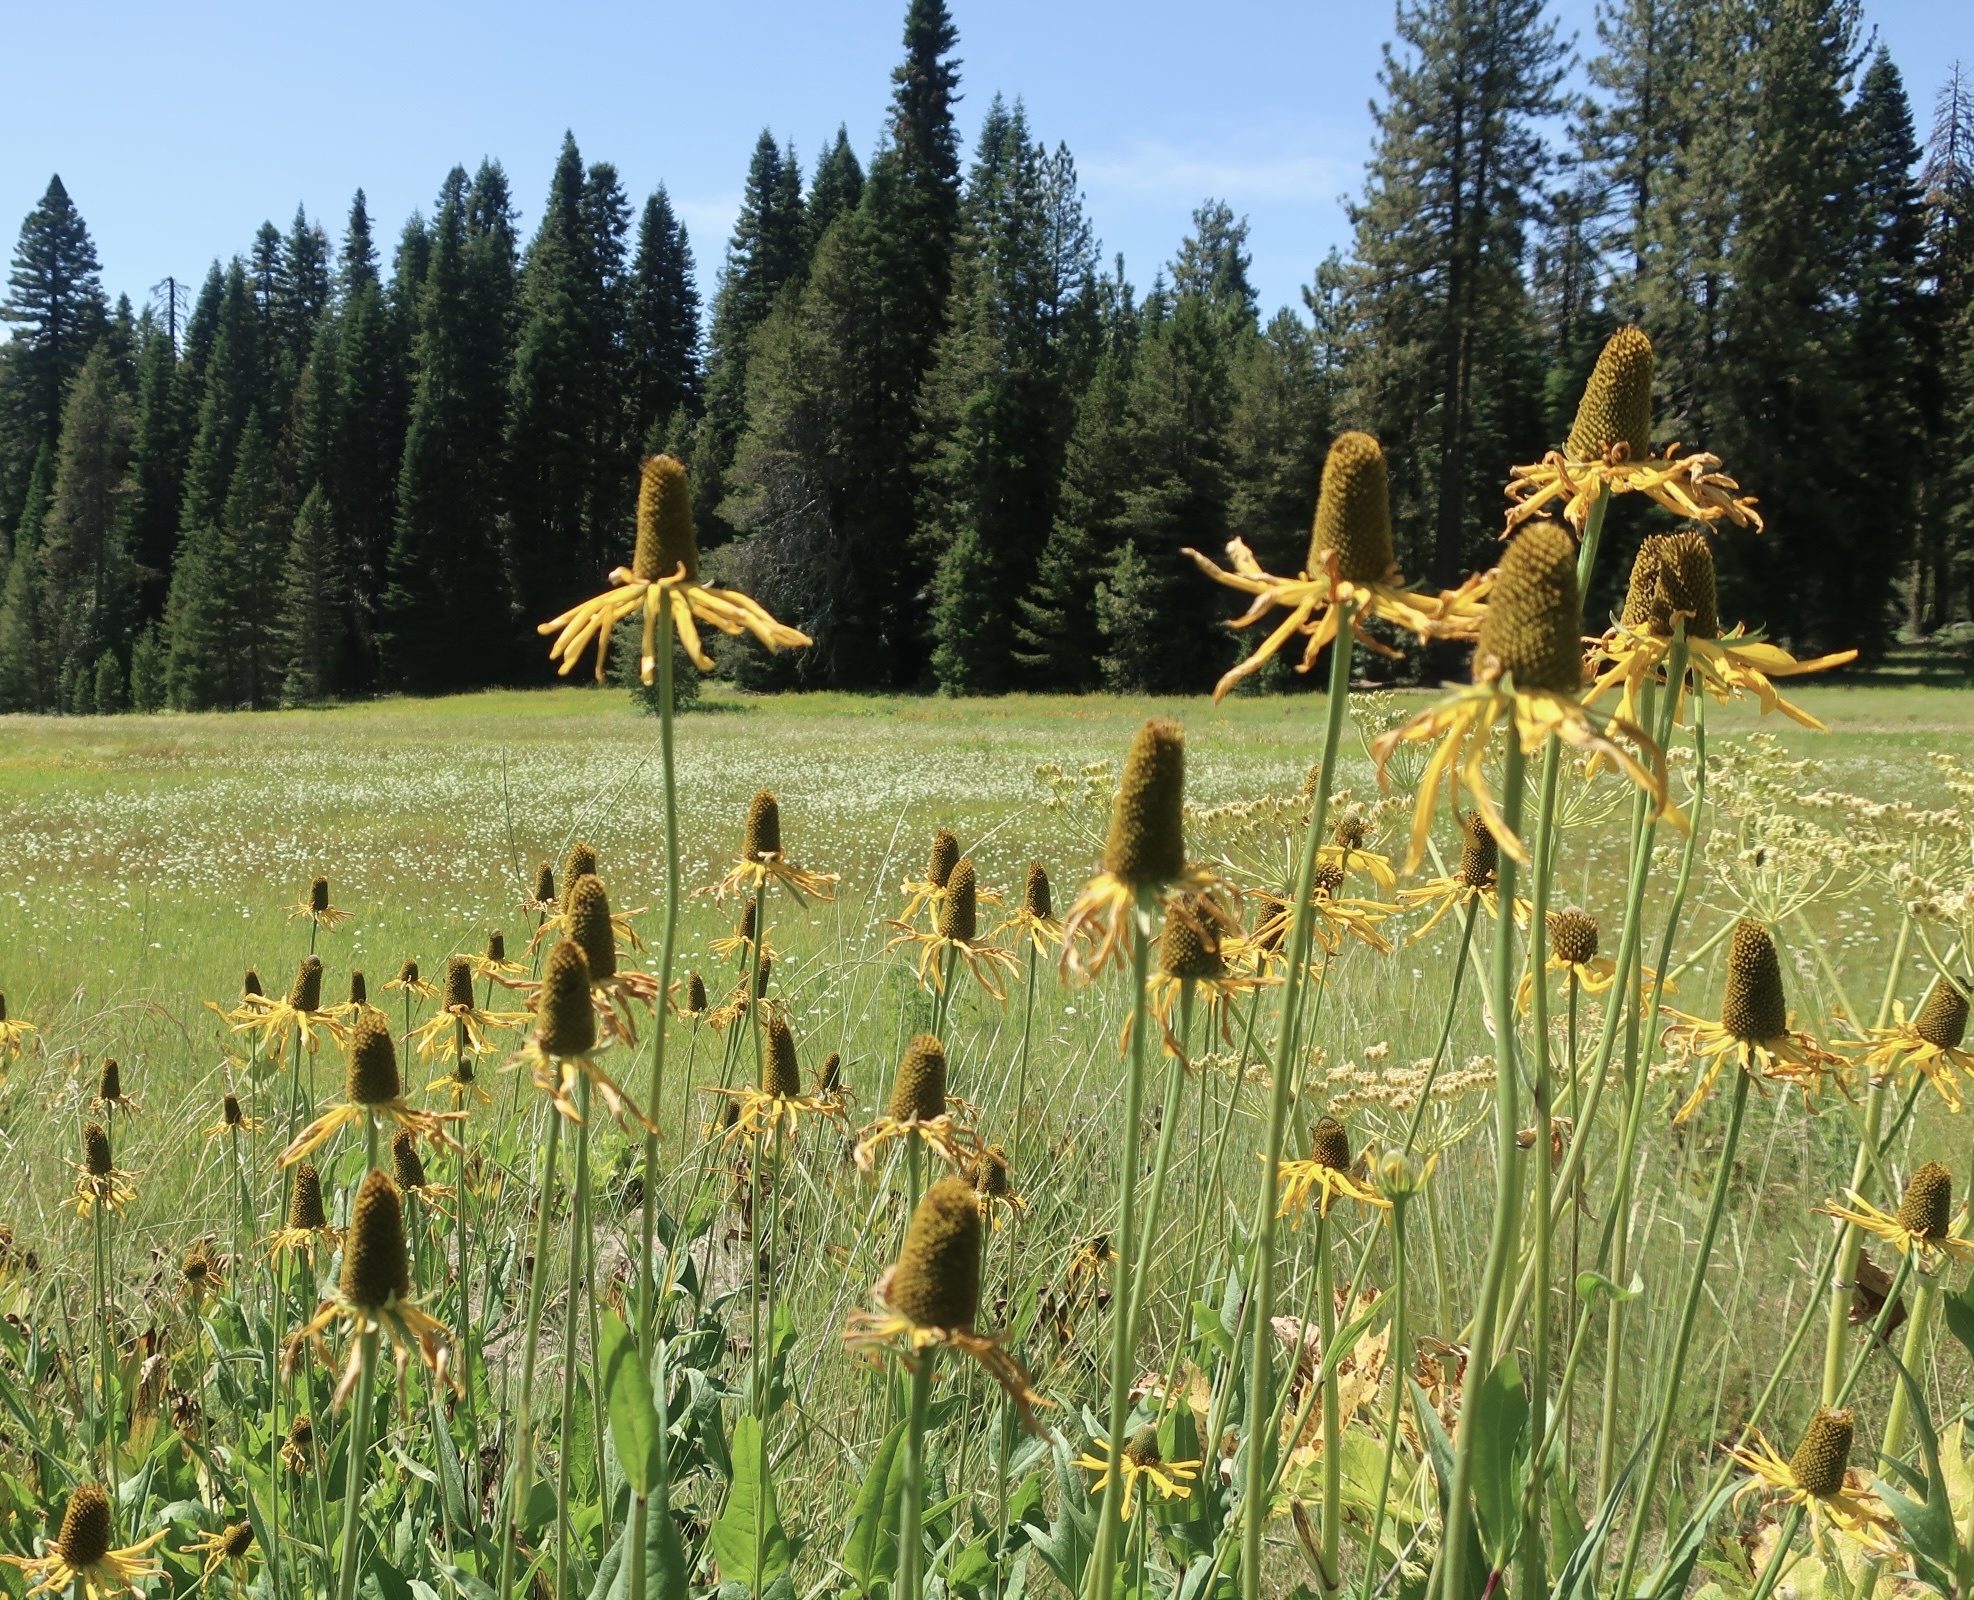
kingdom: Plantae
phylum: Tracheophyta
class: Magnoliopsida
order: Asterales
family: Asteraceae
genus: Rudbeckia
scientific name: Rudbeckia californica
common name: California coneflower
